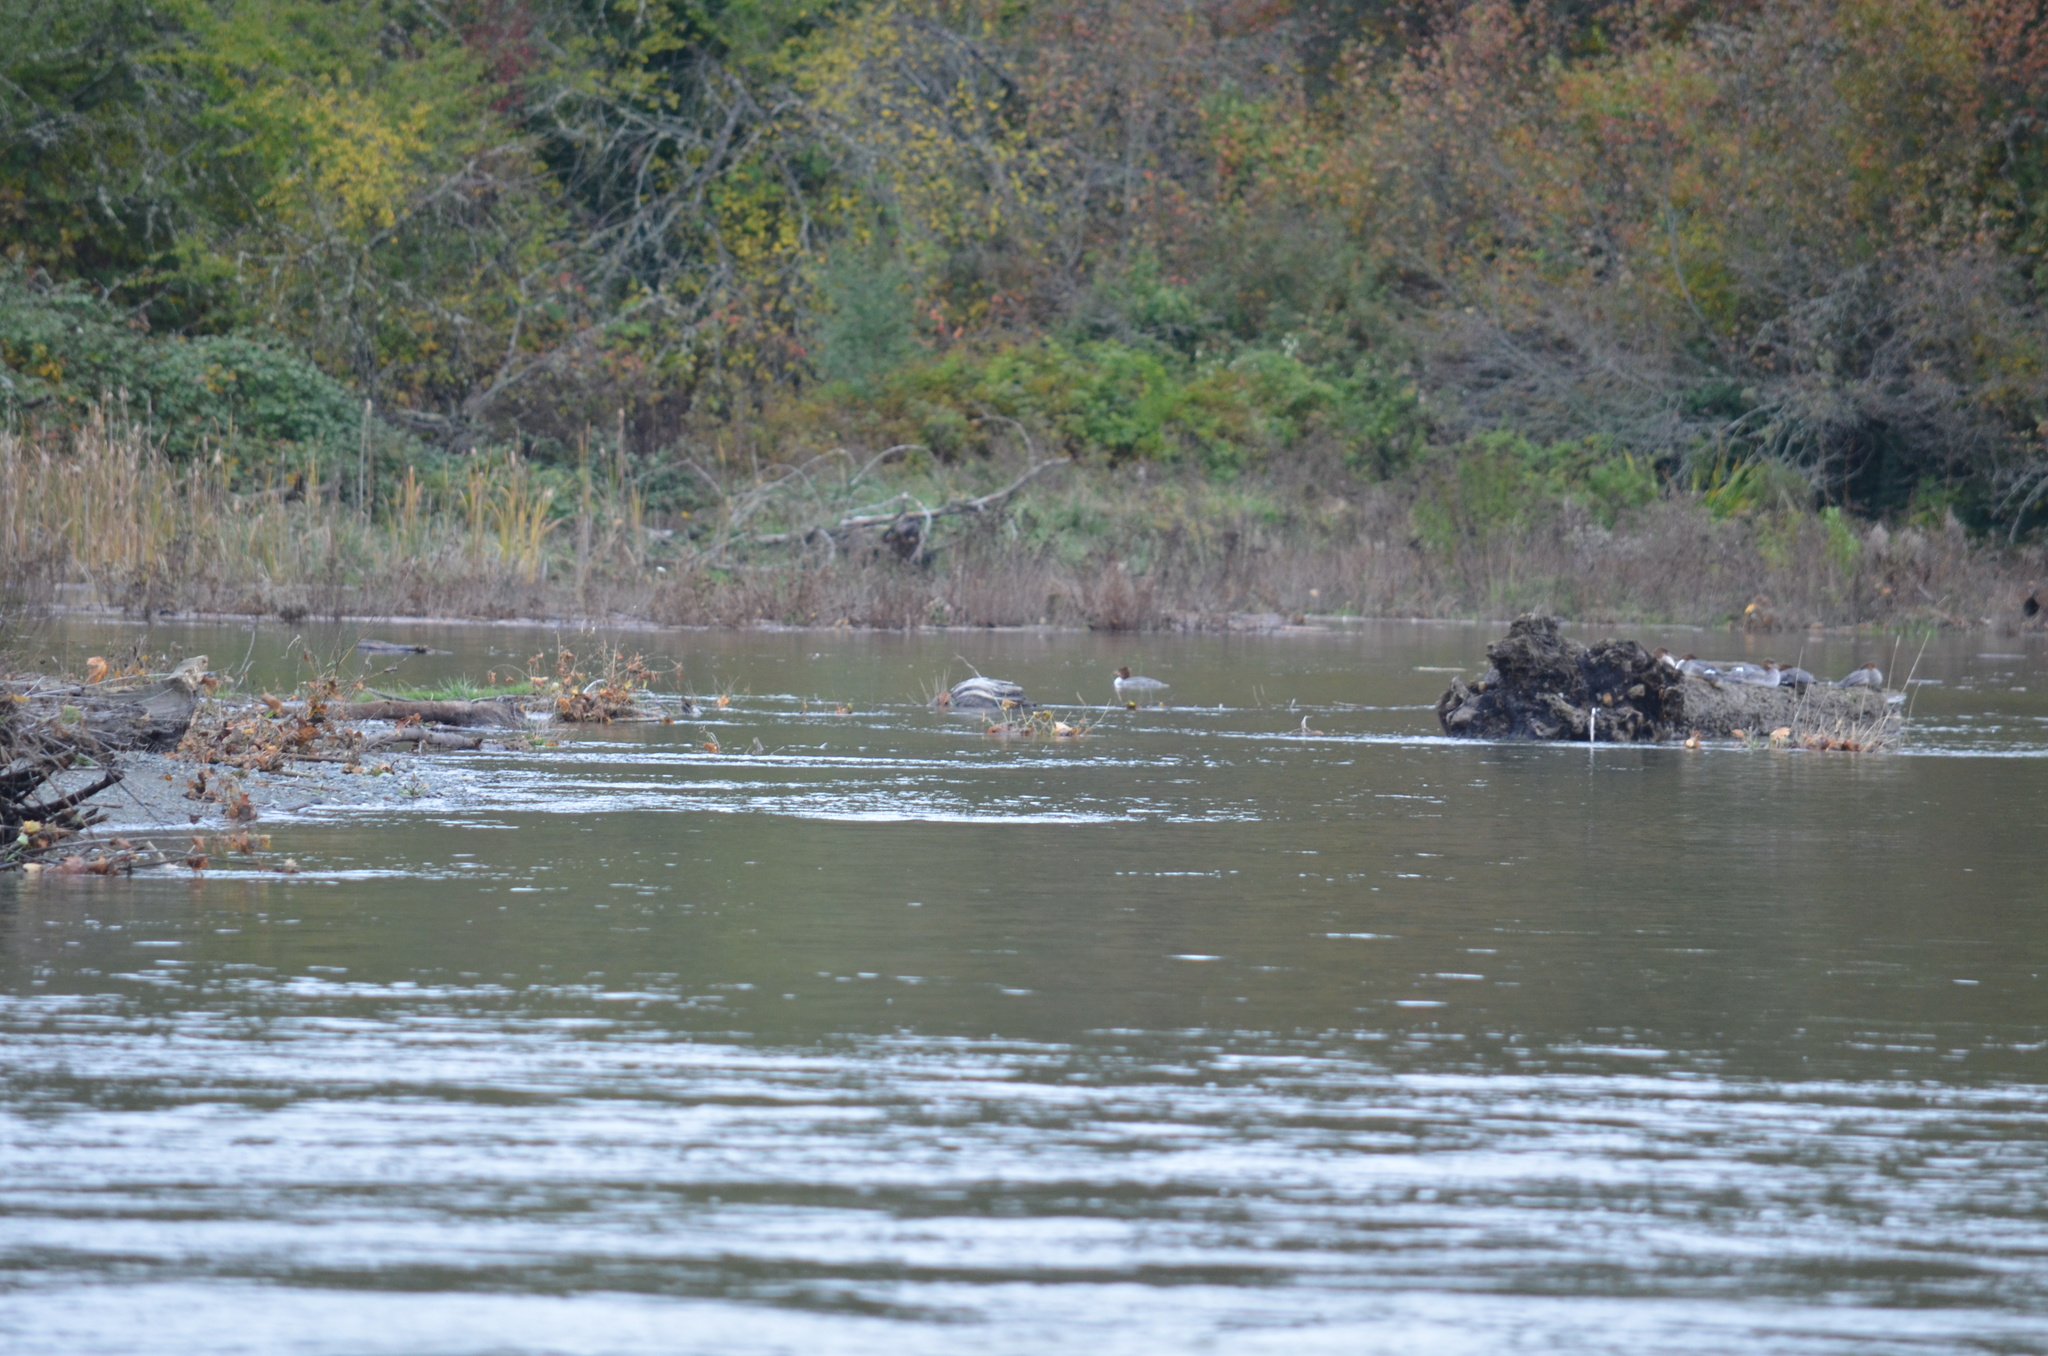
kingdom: Animalia
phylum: Chordata
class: Aves
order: Anseriformes
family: Anatidae
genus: Mergus
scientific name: Mergus merganser
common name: Common merganser
